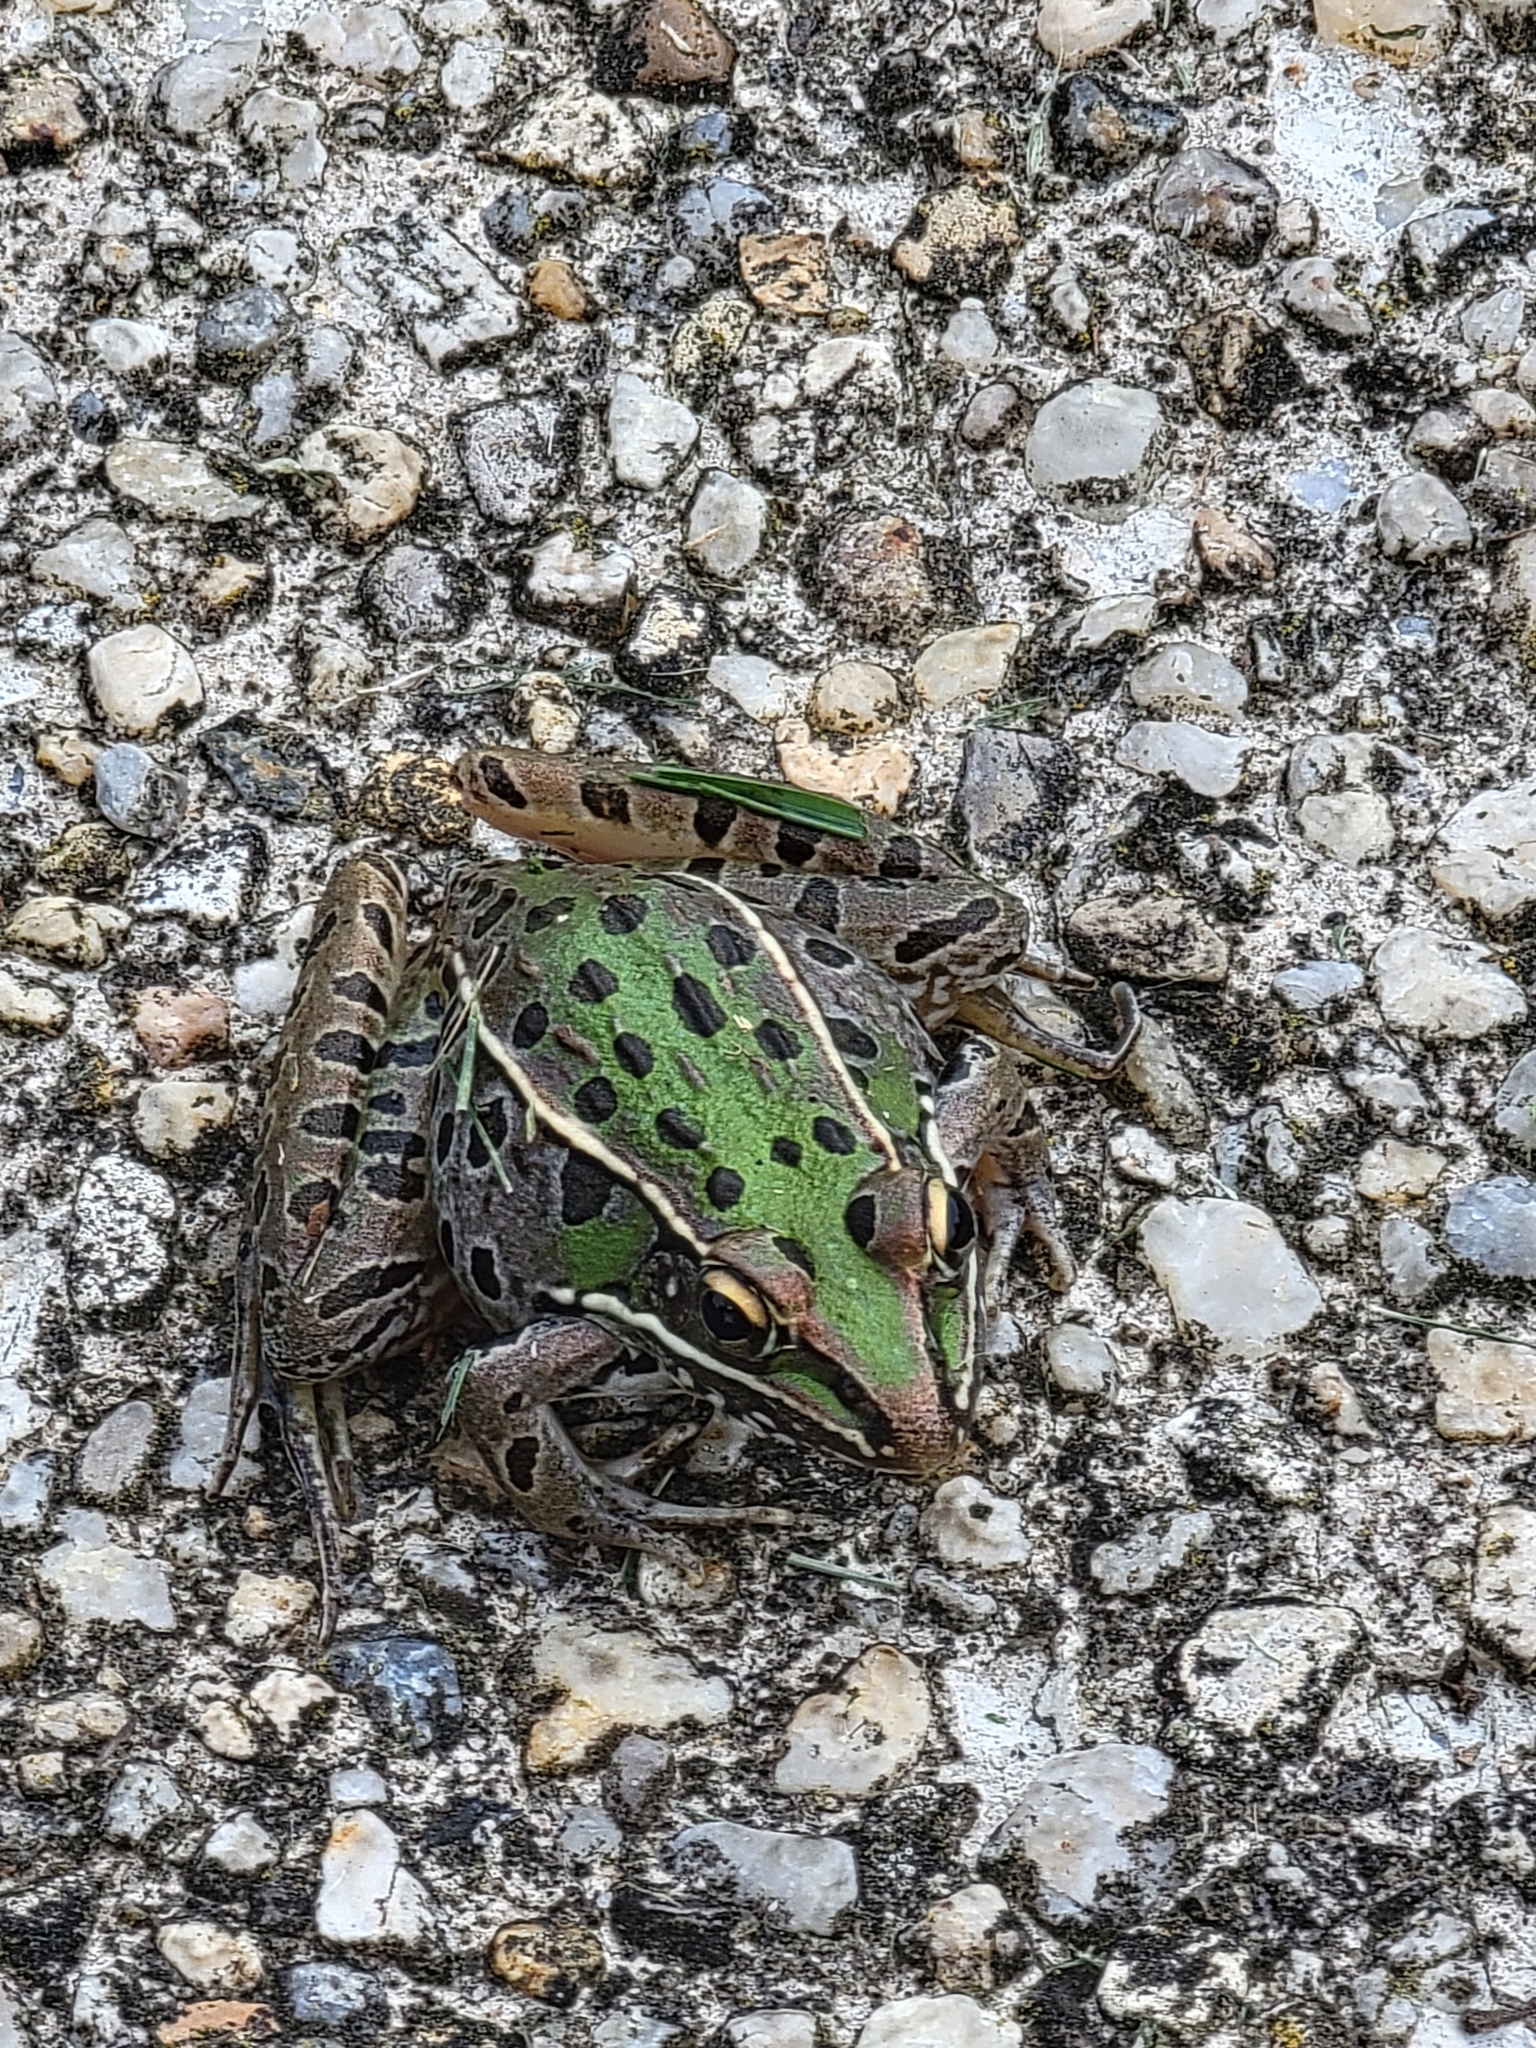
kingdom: Animalia
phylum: Chordata
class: Amphibia
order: Anura
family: Ranidae
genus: Lithobates
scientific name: Lithobates sphenocephalus
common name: Southern leopard frog
